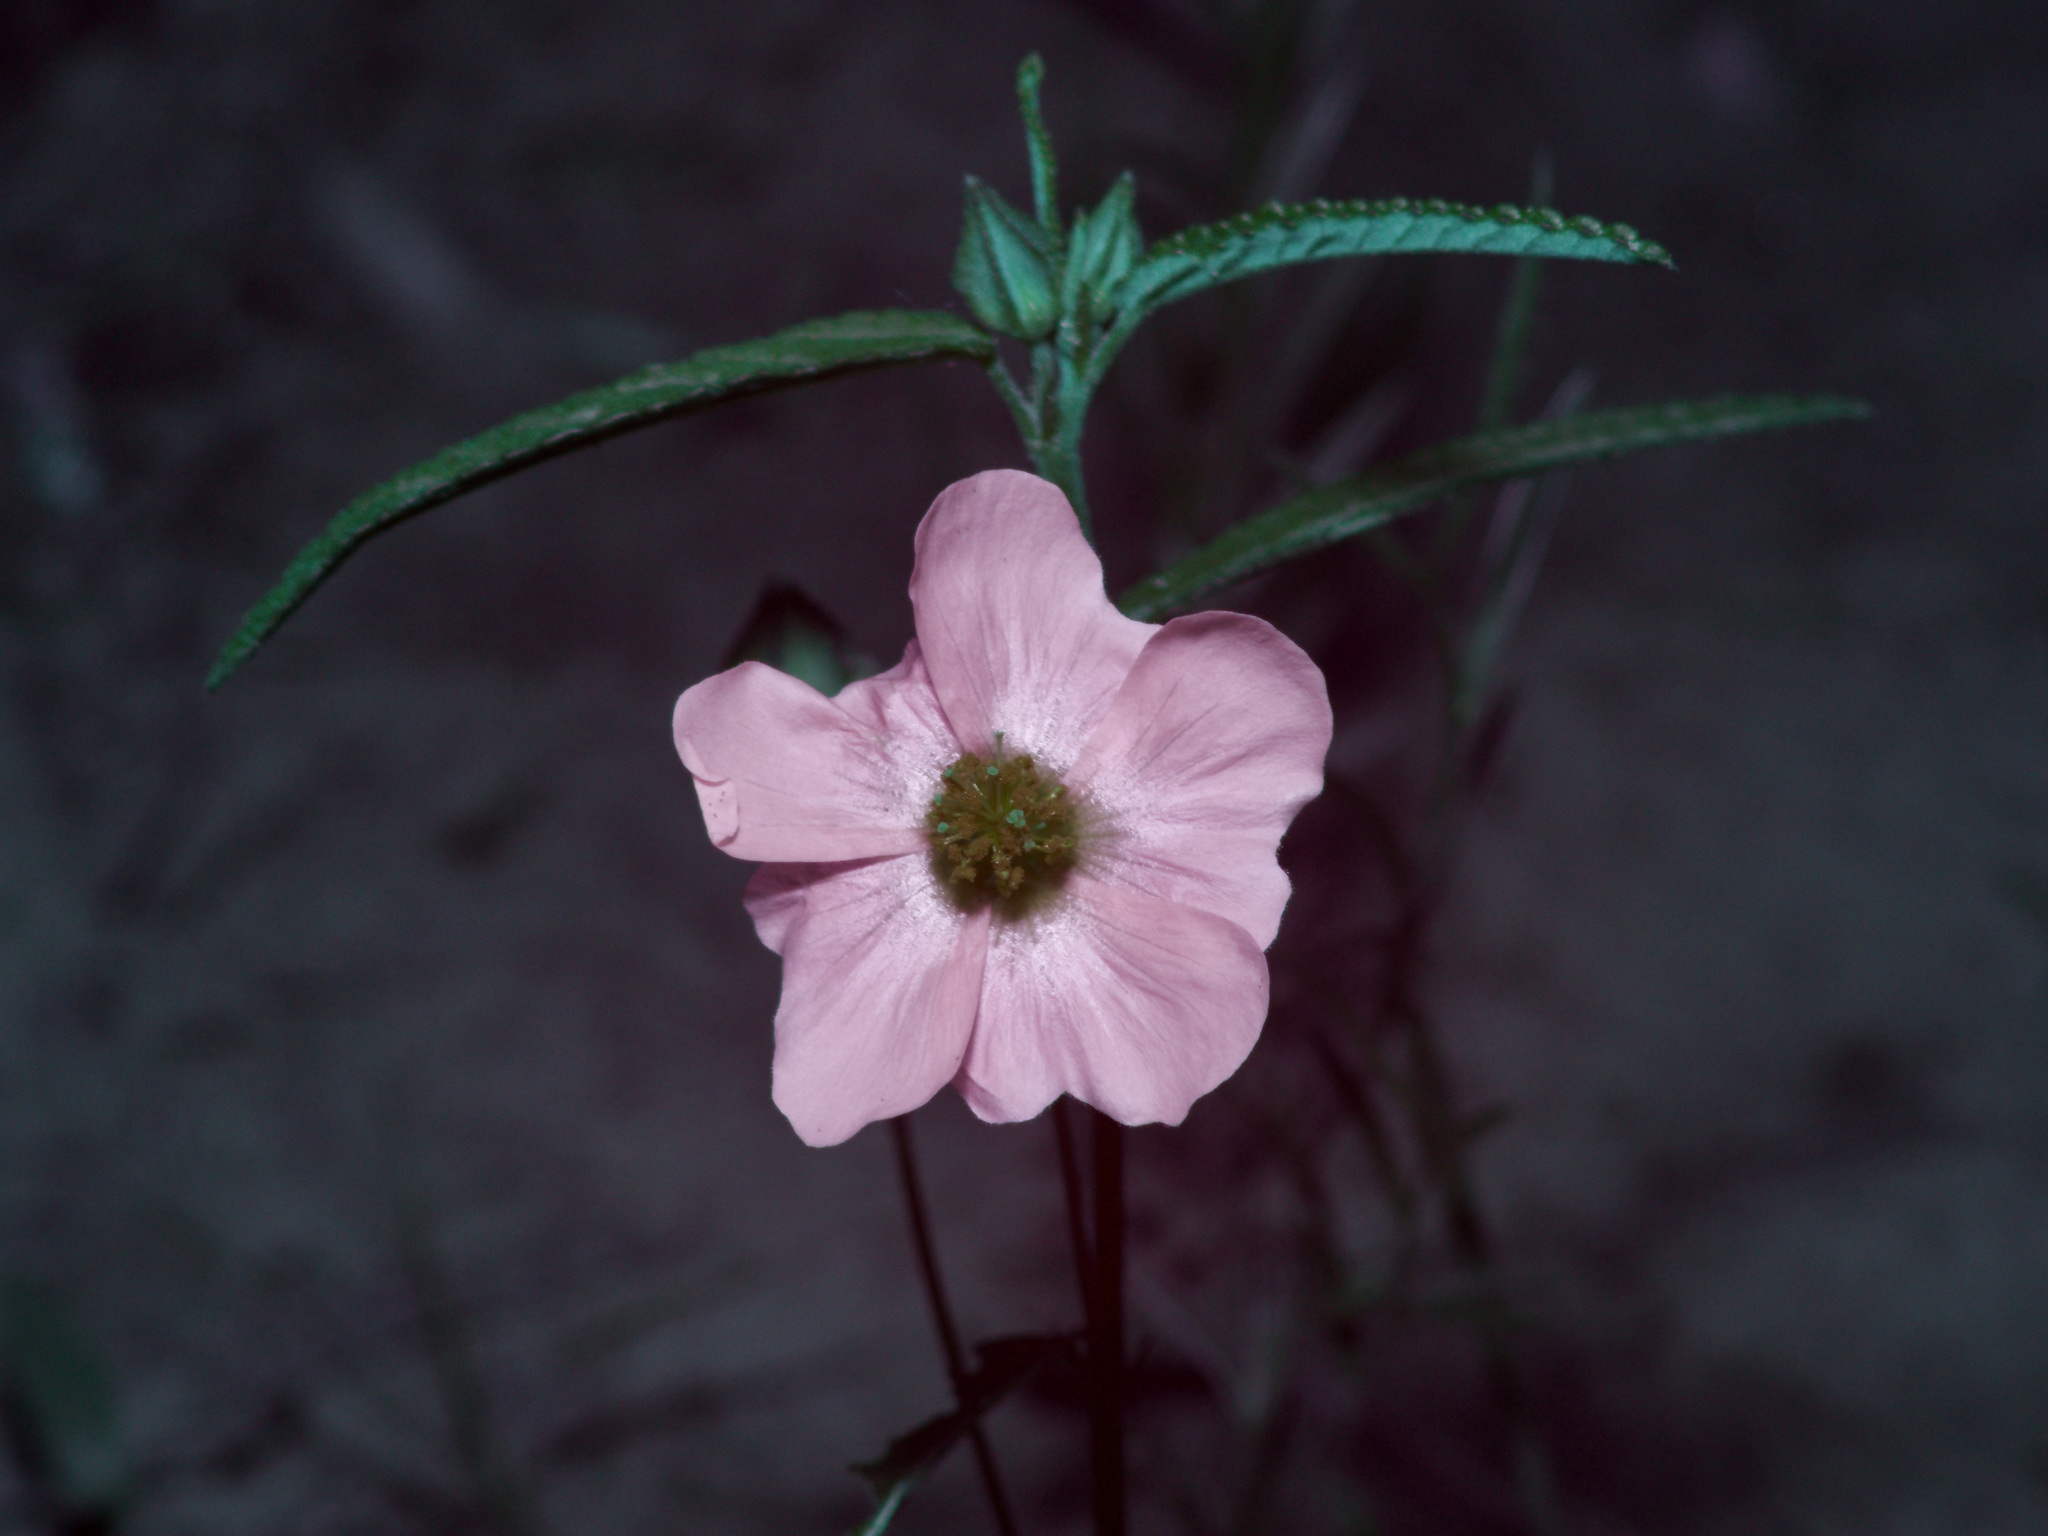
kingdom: Plantae
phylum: Tracheophyta
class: Magnoliopsida
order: Malvales
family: Malvaceae
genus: Sida
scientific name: Sida lindheimeri
